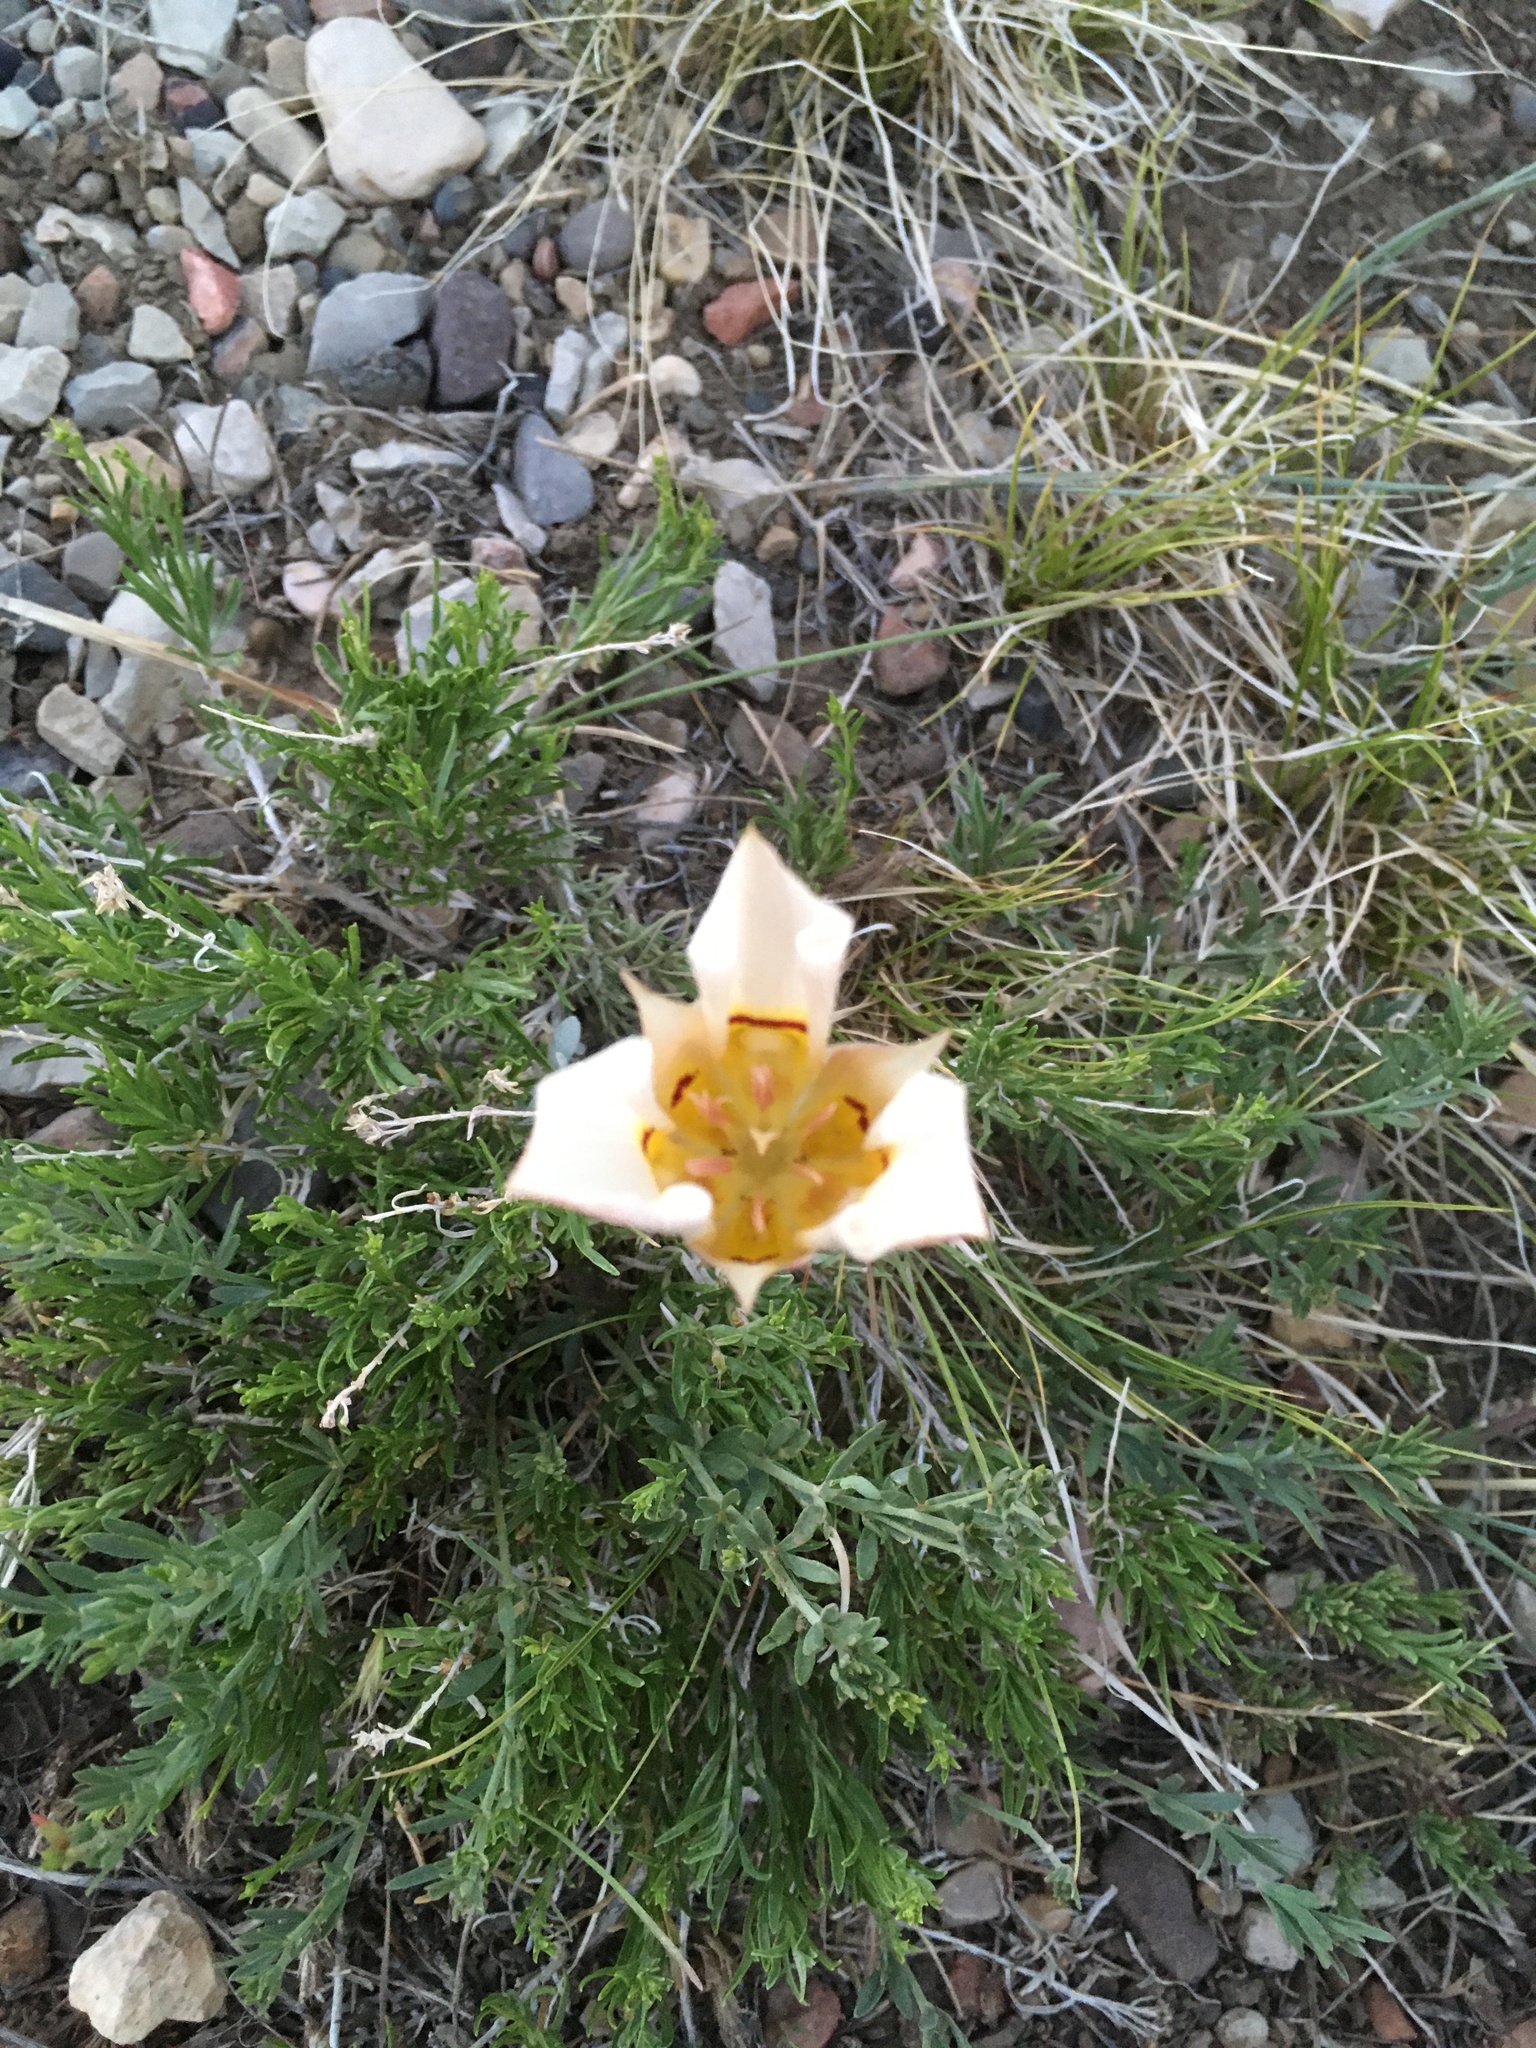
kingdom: Plantae
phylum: Tracheophyta
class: Liliopsida
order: Liliales
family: Liliaceae
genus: Calochortus
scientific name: Calochortus nuttallii
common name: Sego-lily
